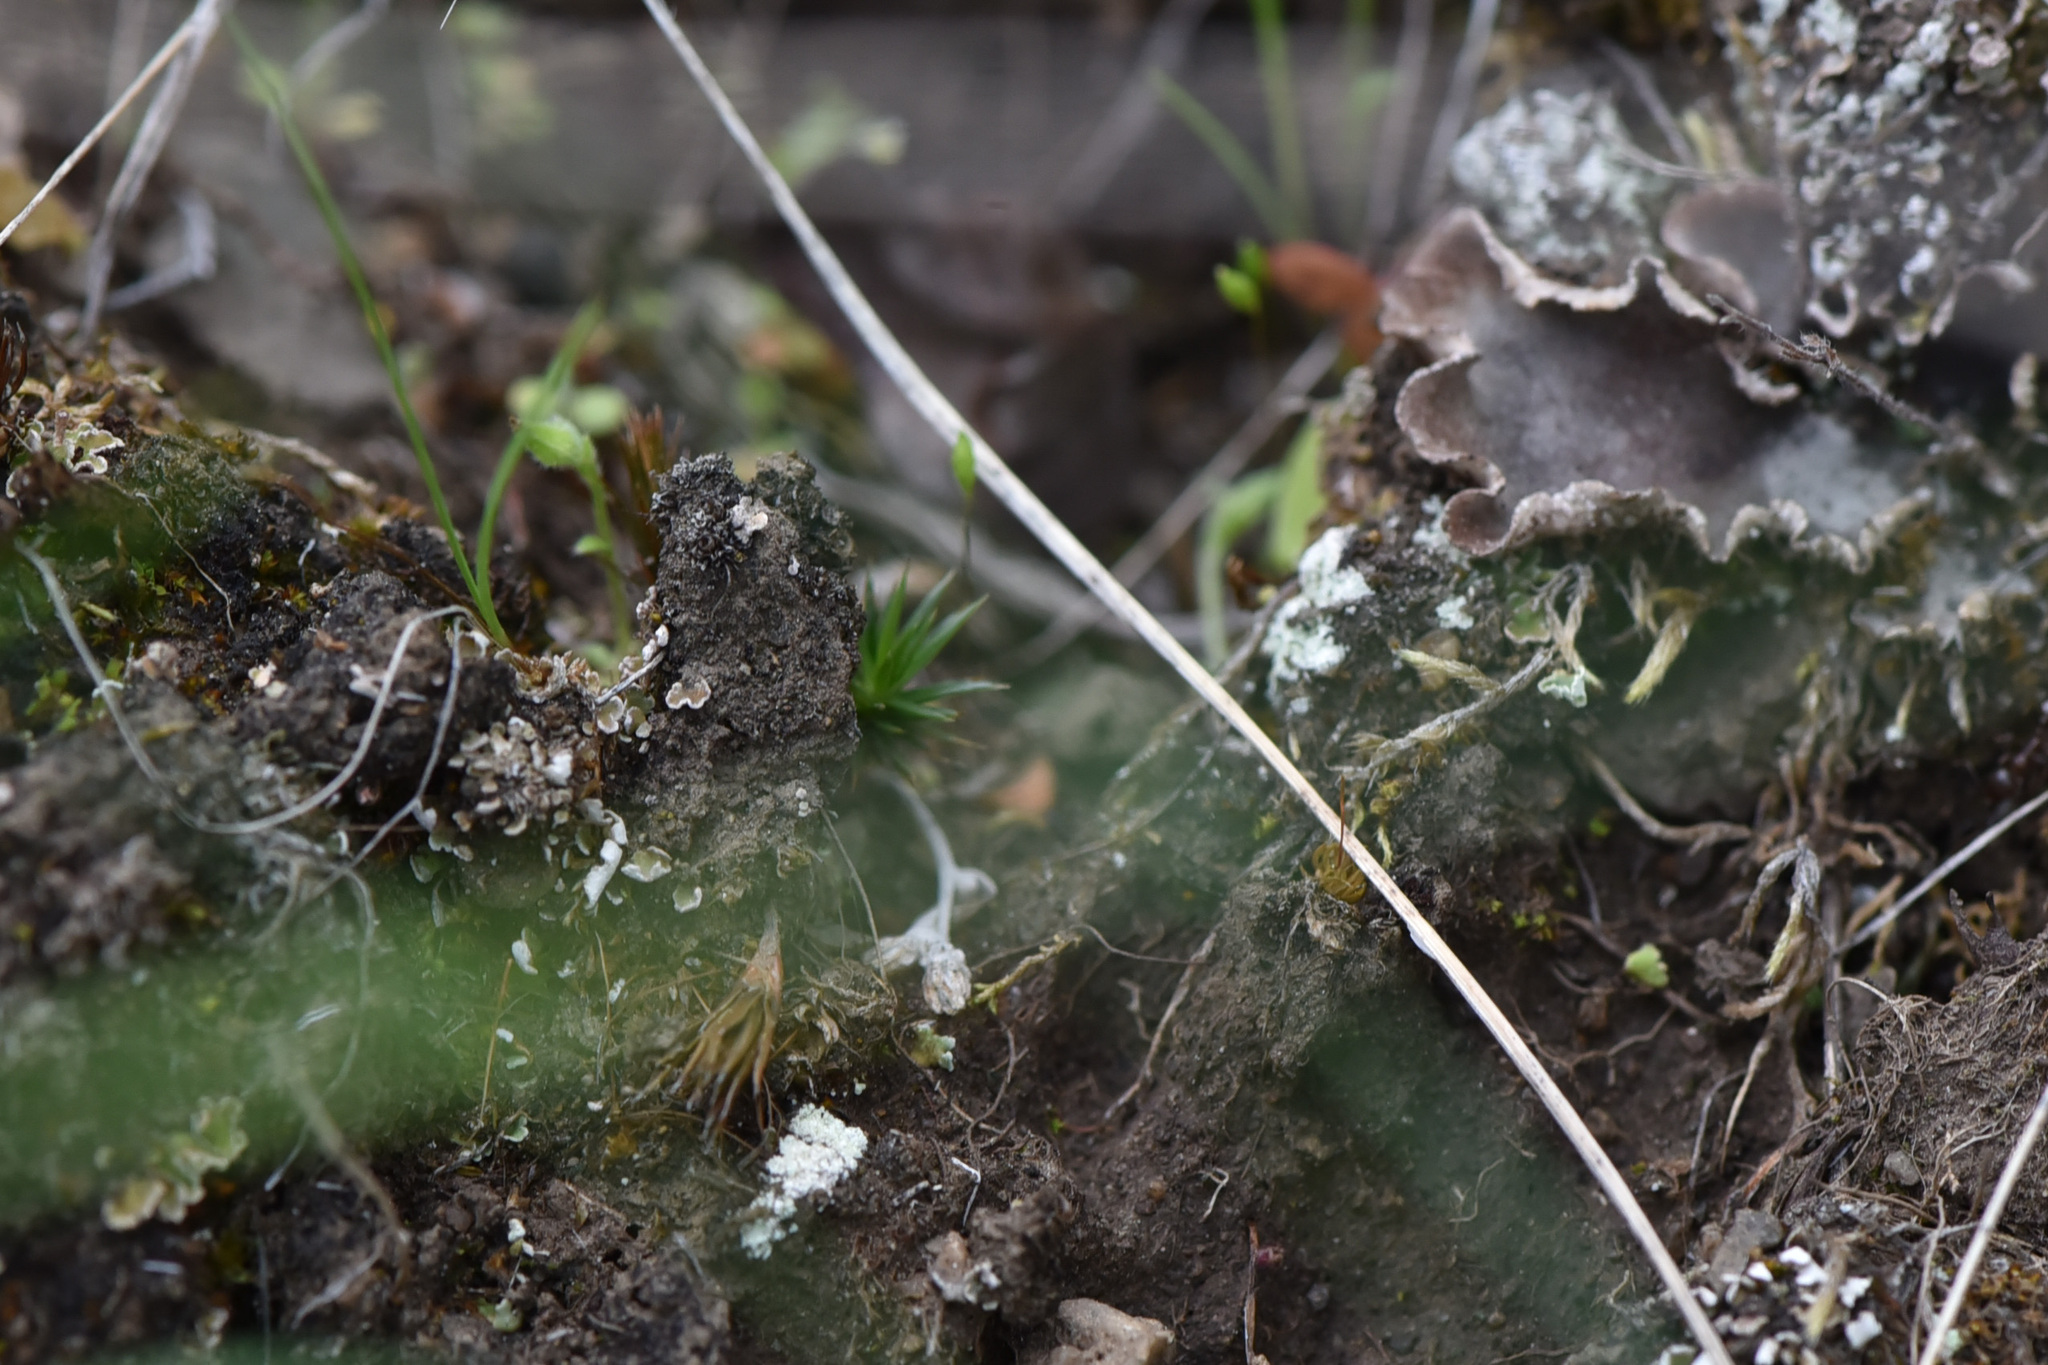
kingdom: Plantae
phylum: Bryophyta
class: Polytrichopsida
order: Polytrichales
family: Polytrichaceae
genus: Polytrichum
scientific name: Polytrichum juniperinum
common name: Juniper haircap moss
